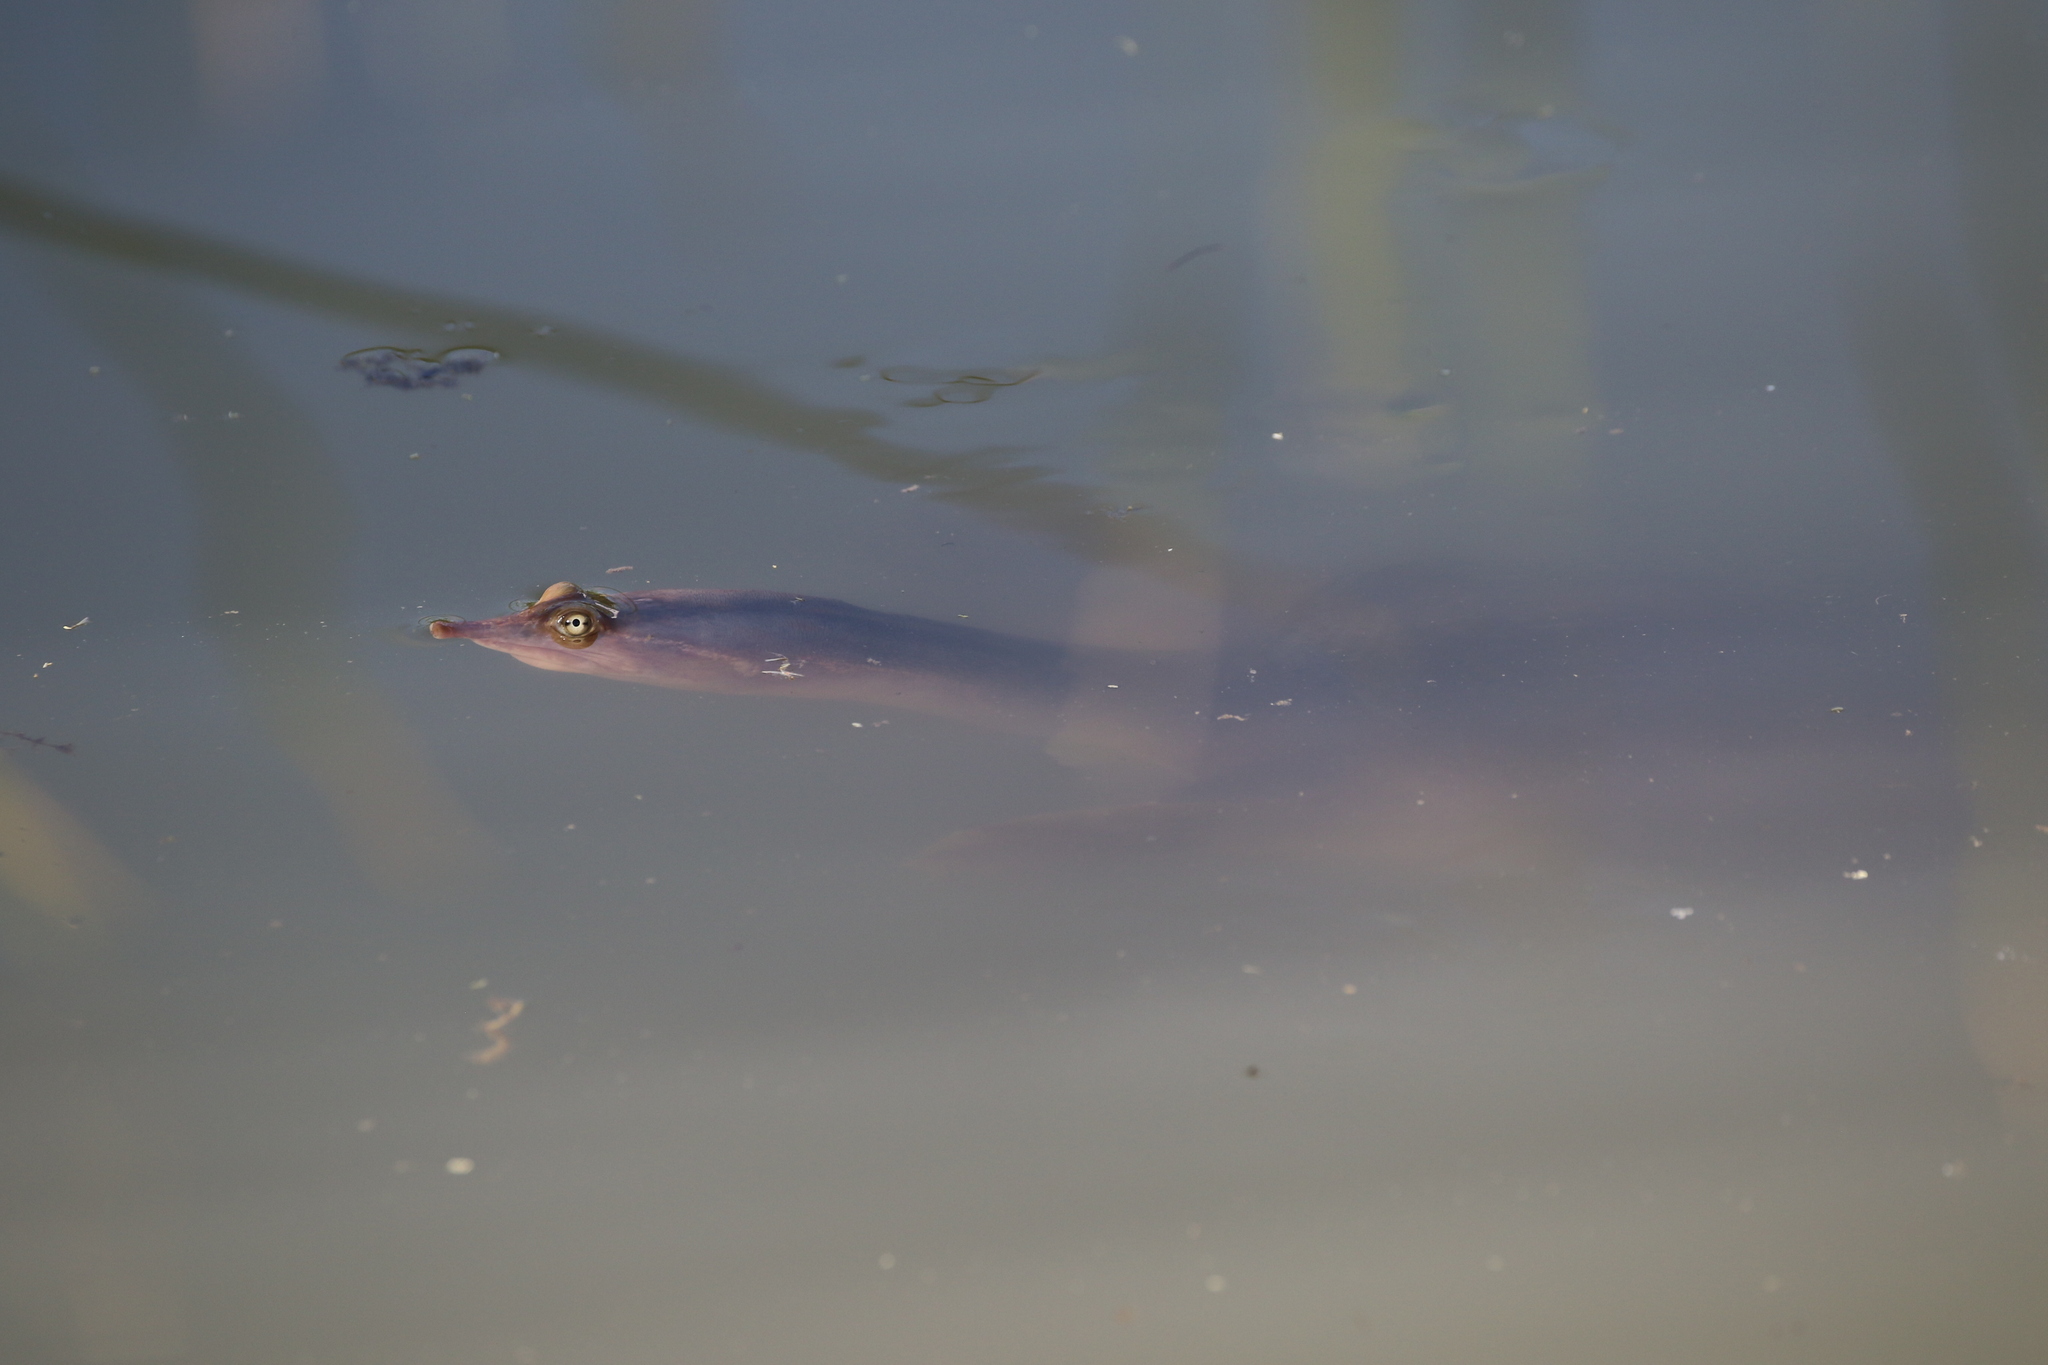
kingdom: Animalia
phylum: Chordata
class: Testudines
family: Trionychidae
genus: Apalone
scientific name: Apalone spinifera
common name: Spiny softshell turtle
